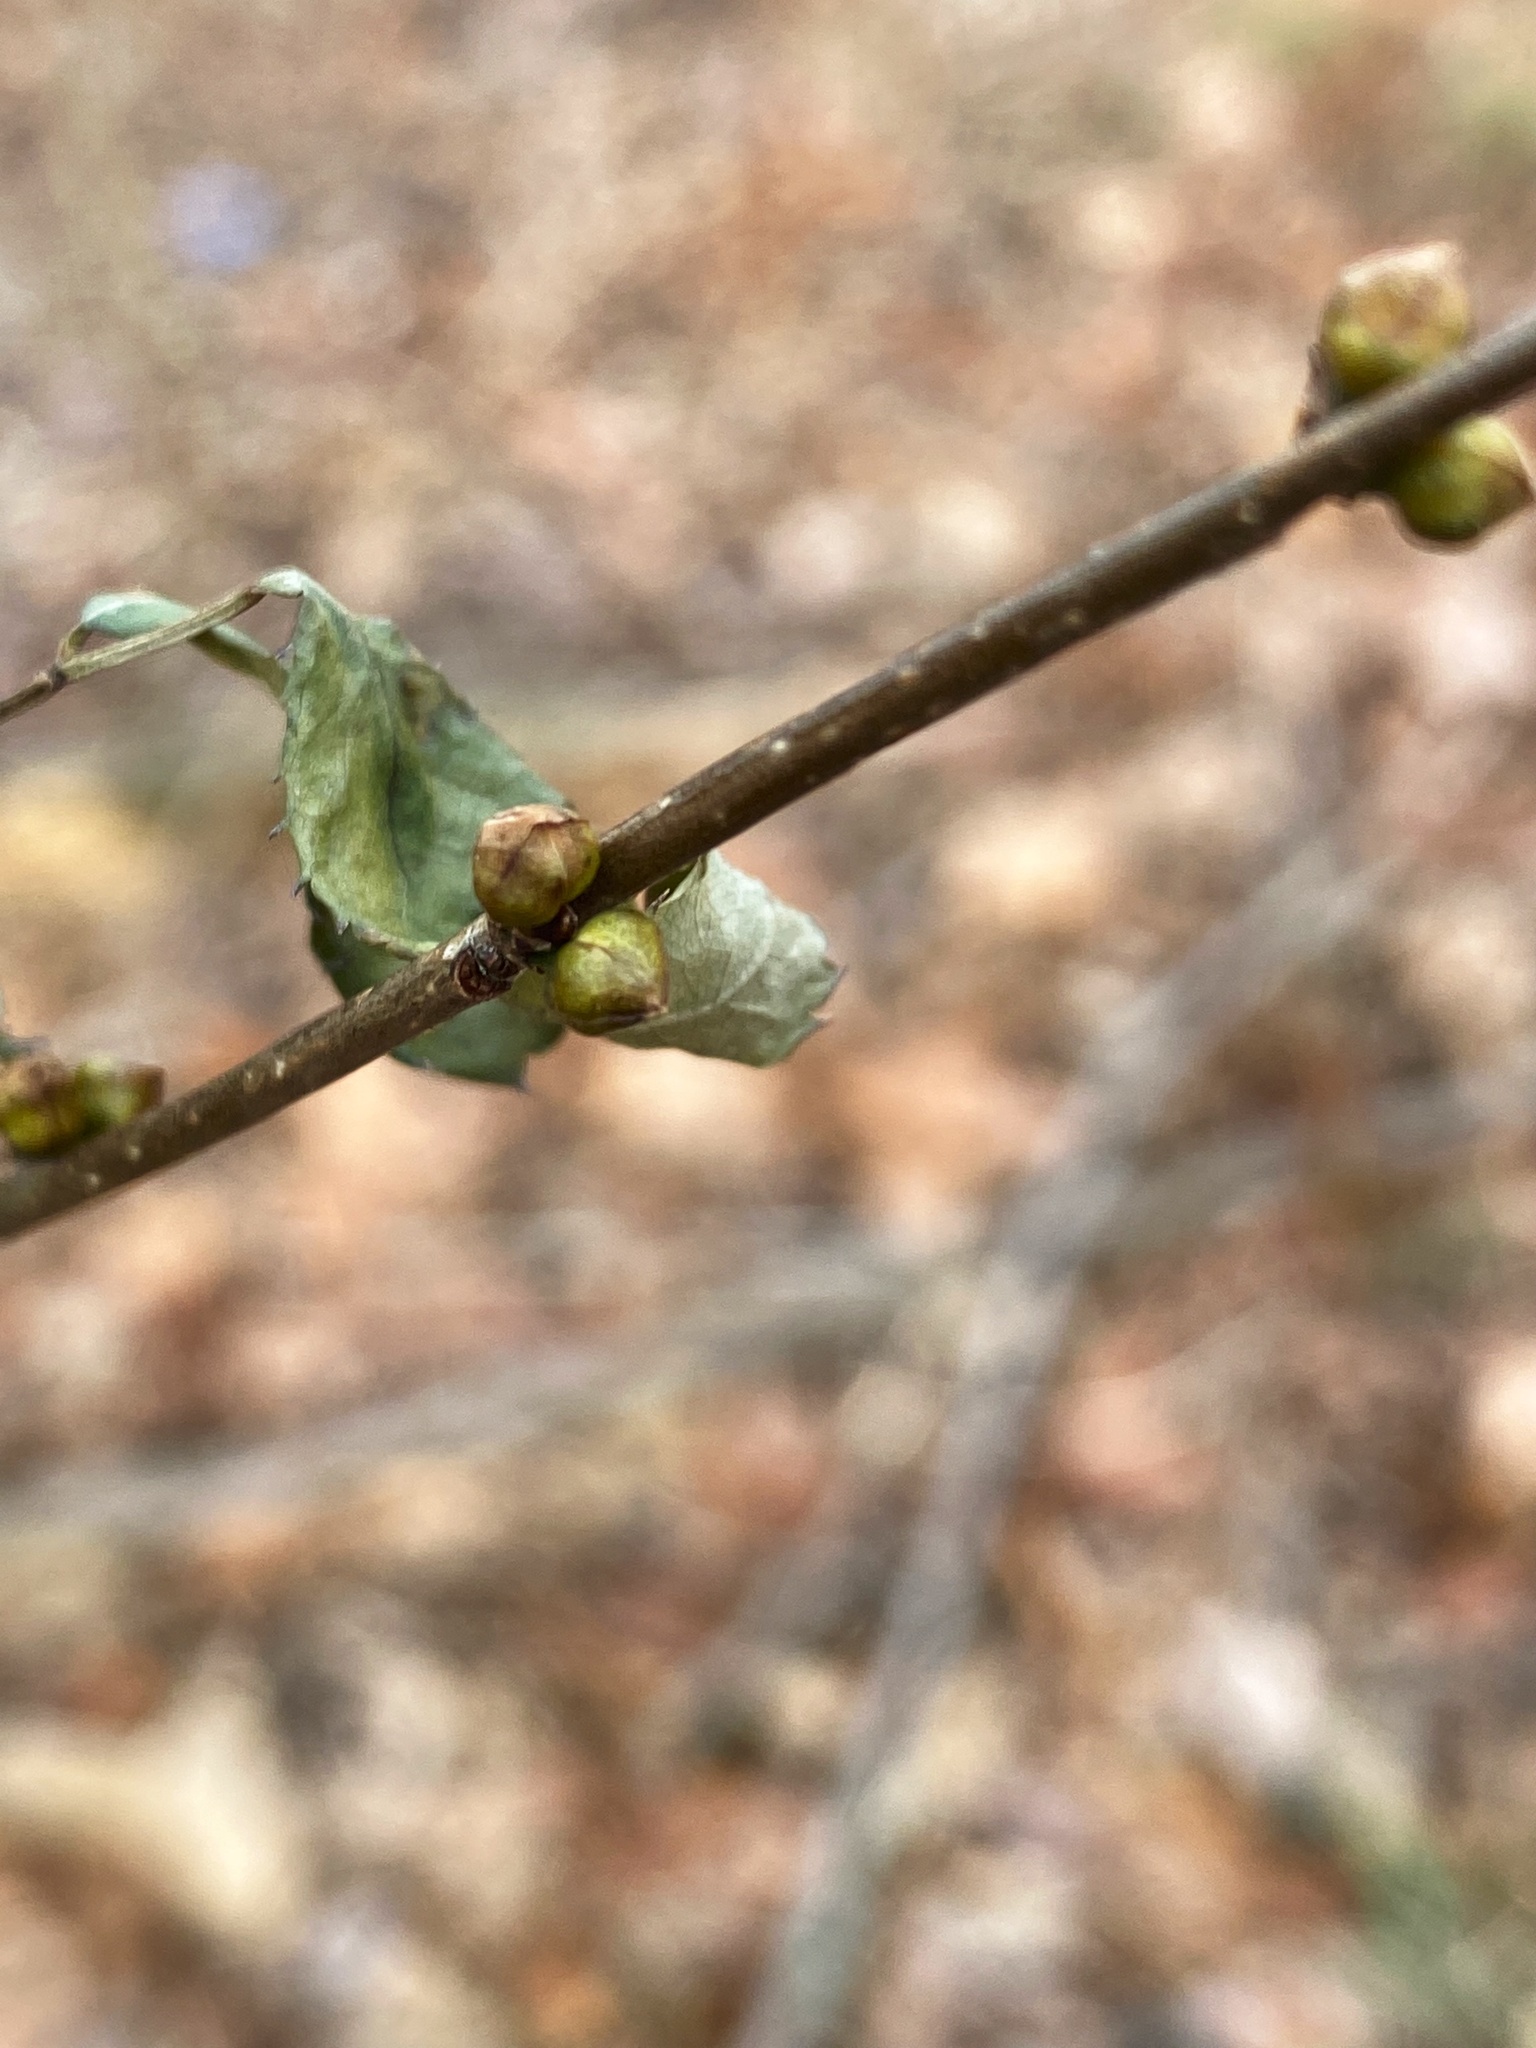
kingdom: Plantae
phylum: Tracheophyta
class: Magnoliopsida
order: Laurales
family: Lauraceae
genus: Lindera
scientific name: Lindera benzoin
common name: Spicebush
